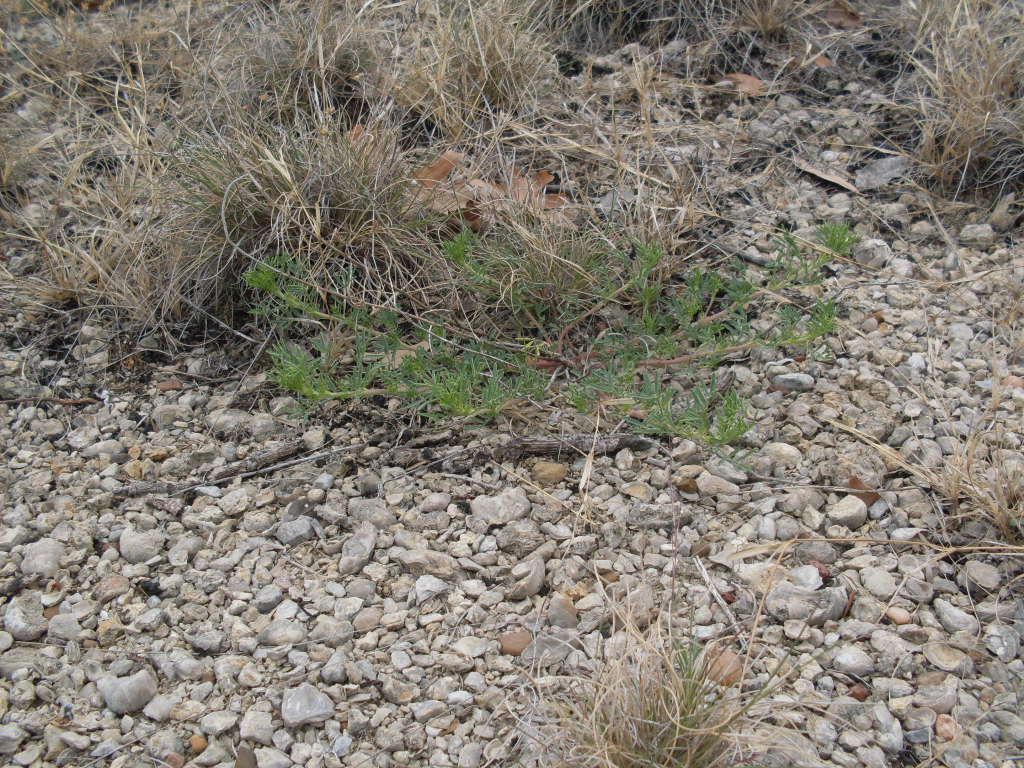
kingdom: Plantae
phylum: Tracheophyta
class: Magnoliopsida
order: Fabales
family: Fabaceae
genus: Dalea
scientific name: Dalea reverchonii
